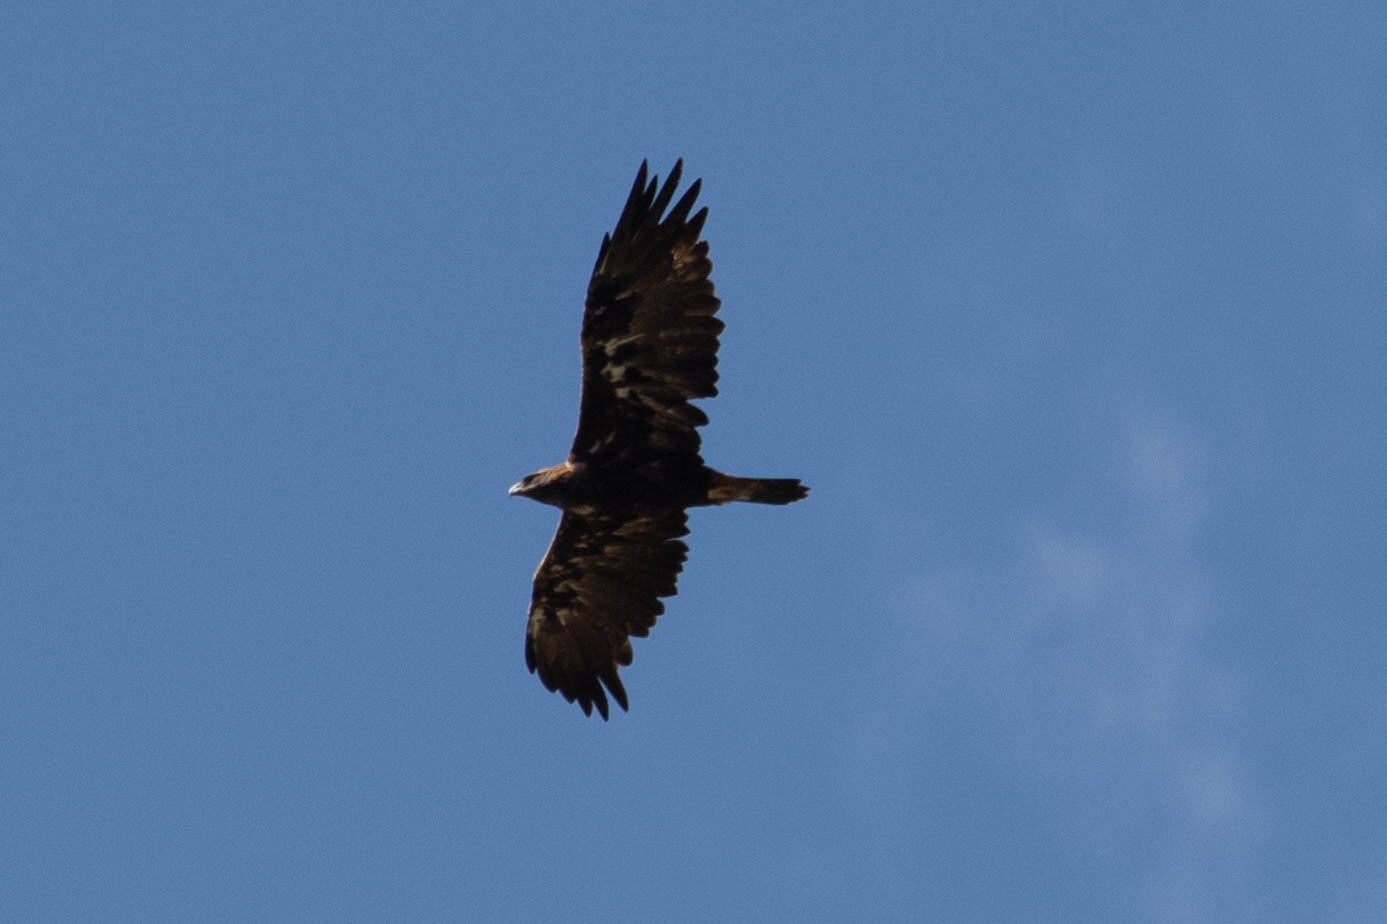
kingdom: Animalia
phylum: Chordata
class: Aves
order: Accipitriformes
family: Accipitridae
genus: Aquila
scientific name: Aquila chrysaetos
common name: Golden eagle
